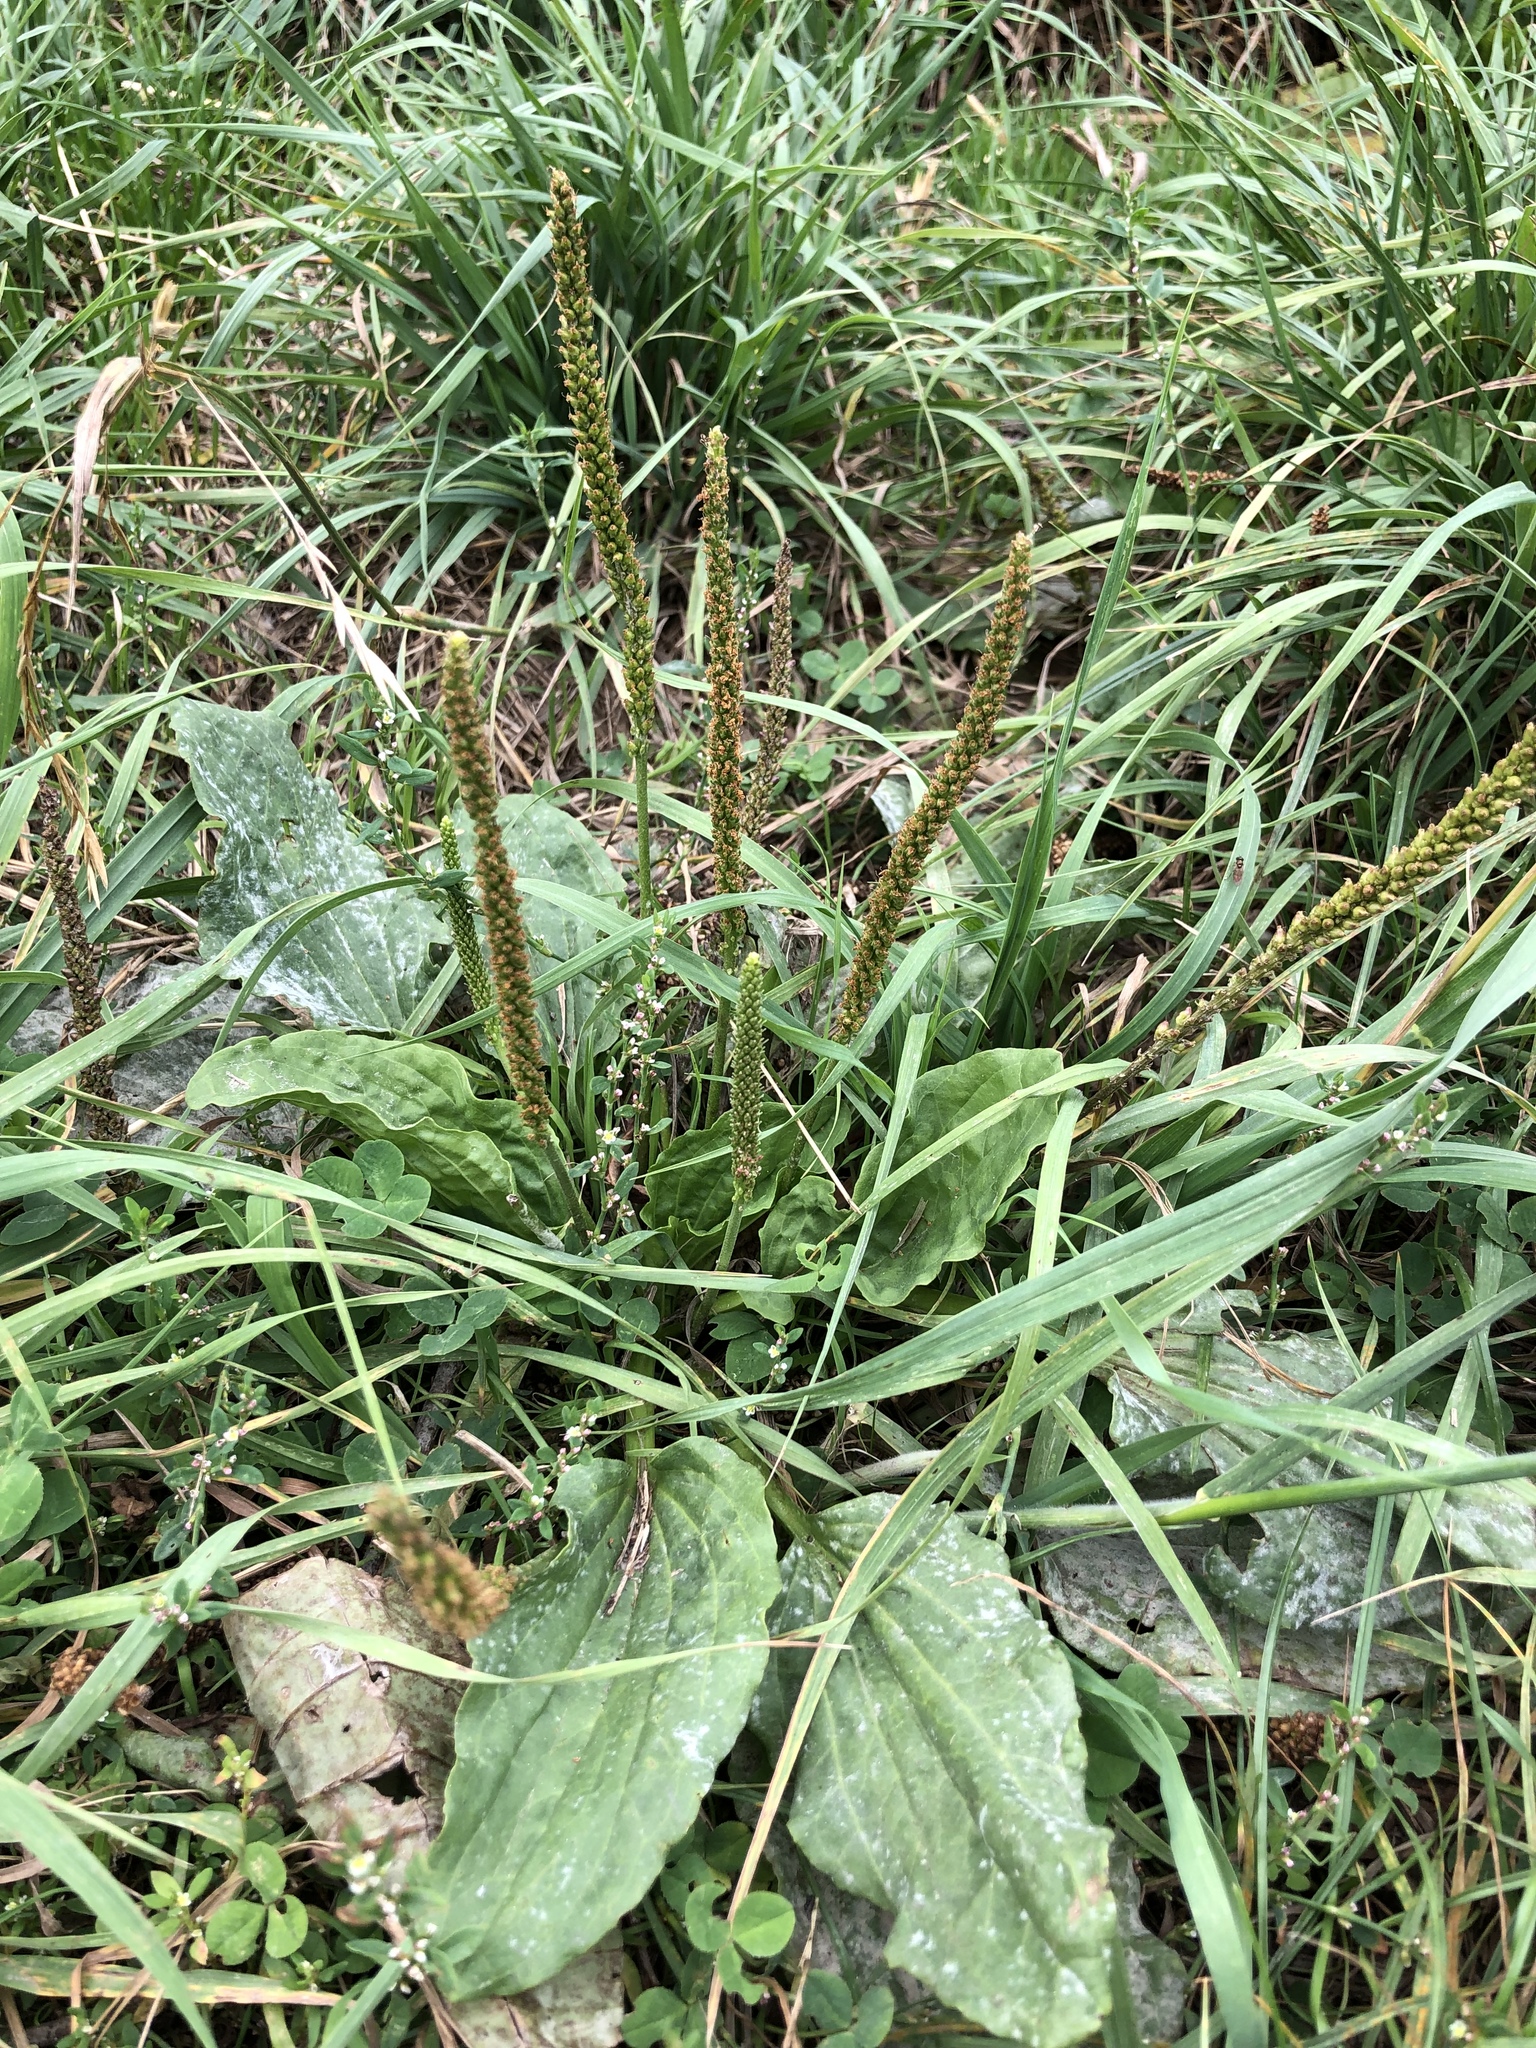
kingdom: Plantae
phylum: Tracheophyta
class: Magnoliopsida
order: Lamiales
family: Plantaginaceae
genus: Plantago
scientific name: Plantago major
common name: Common plantain
